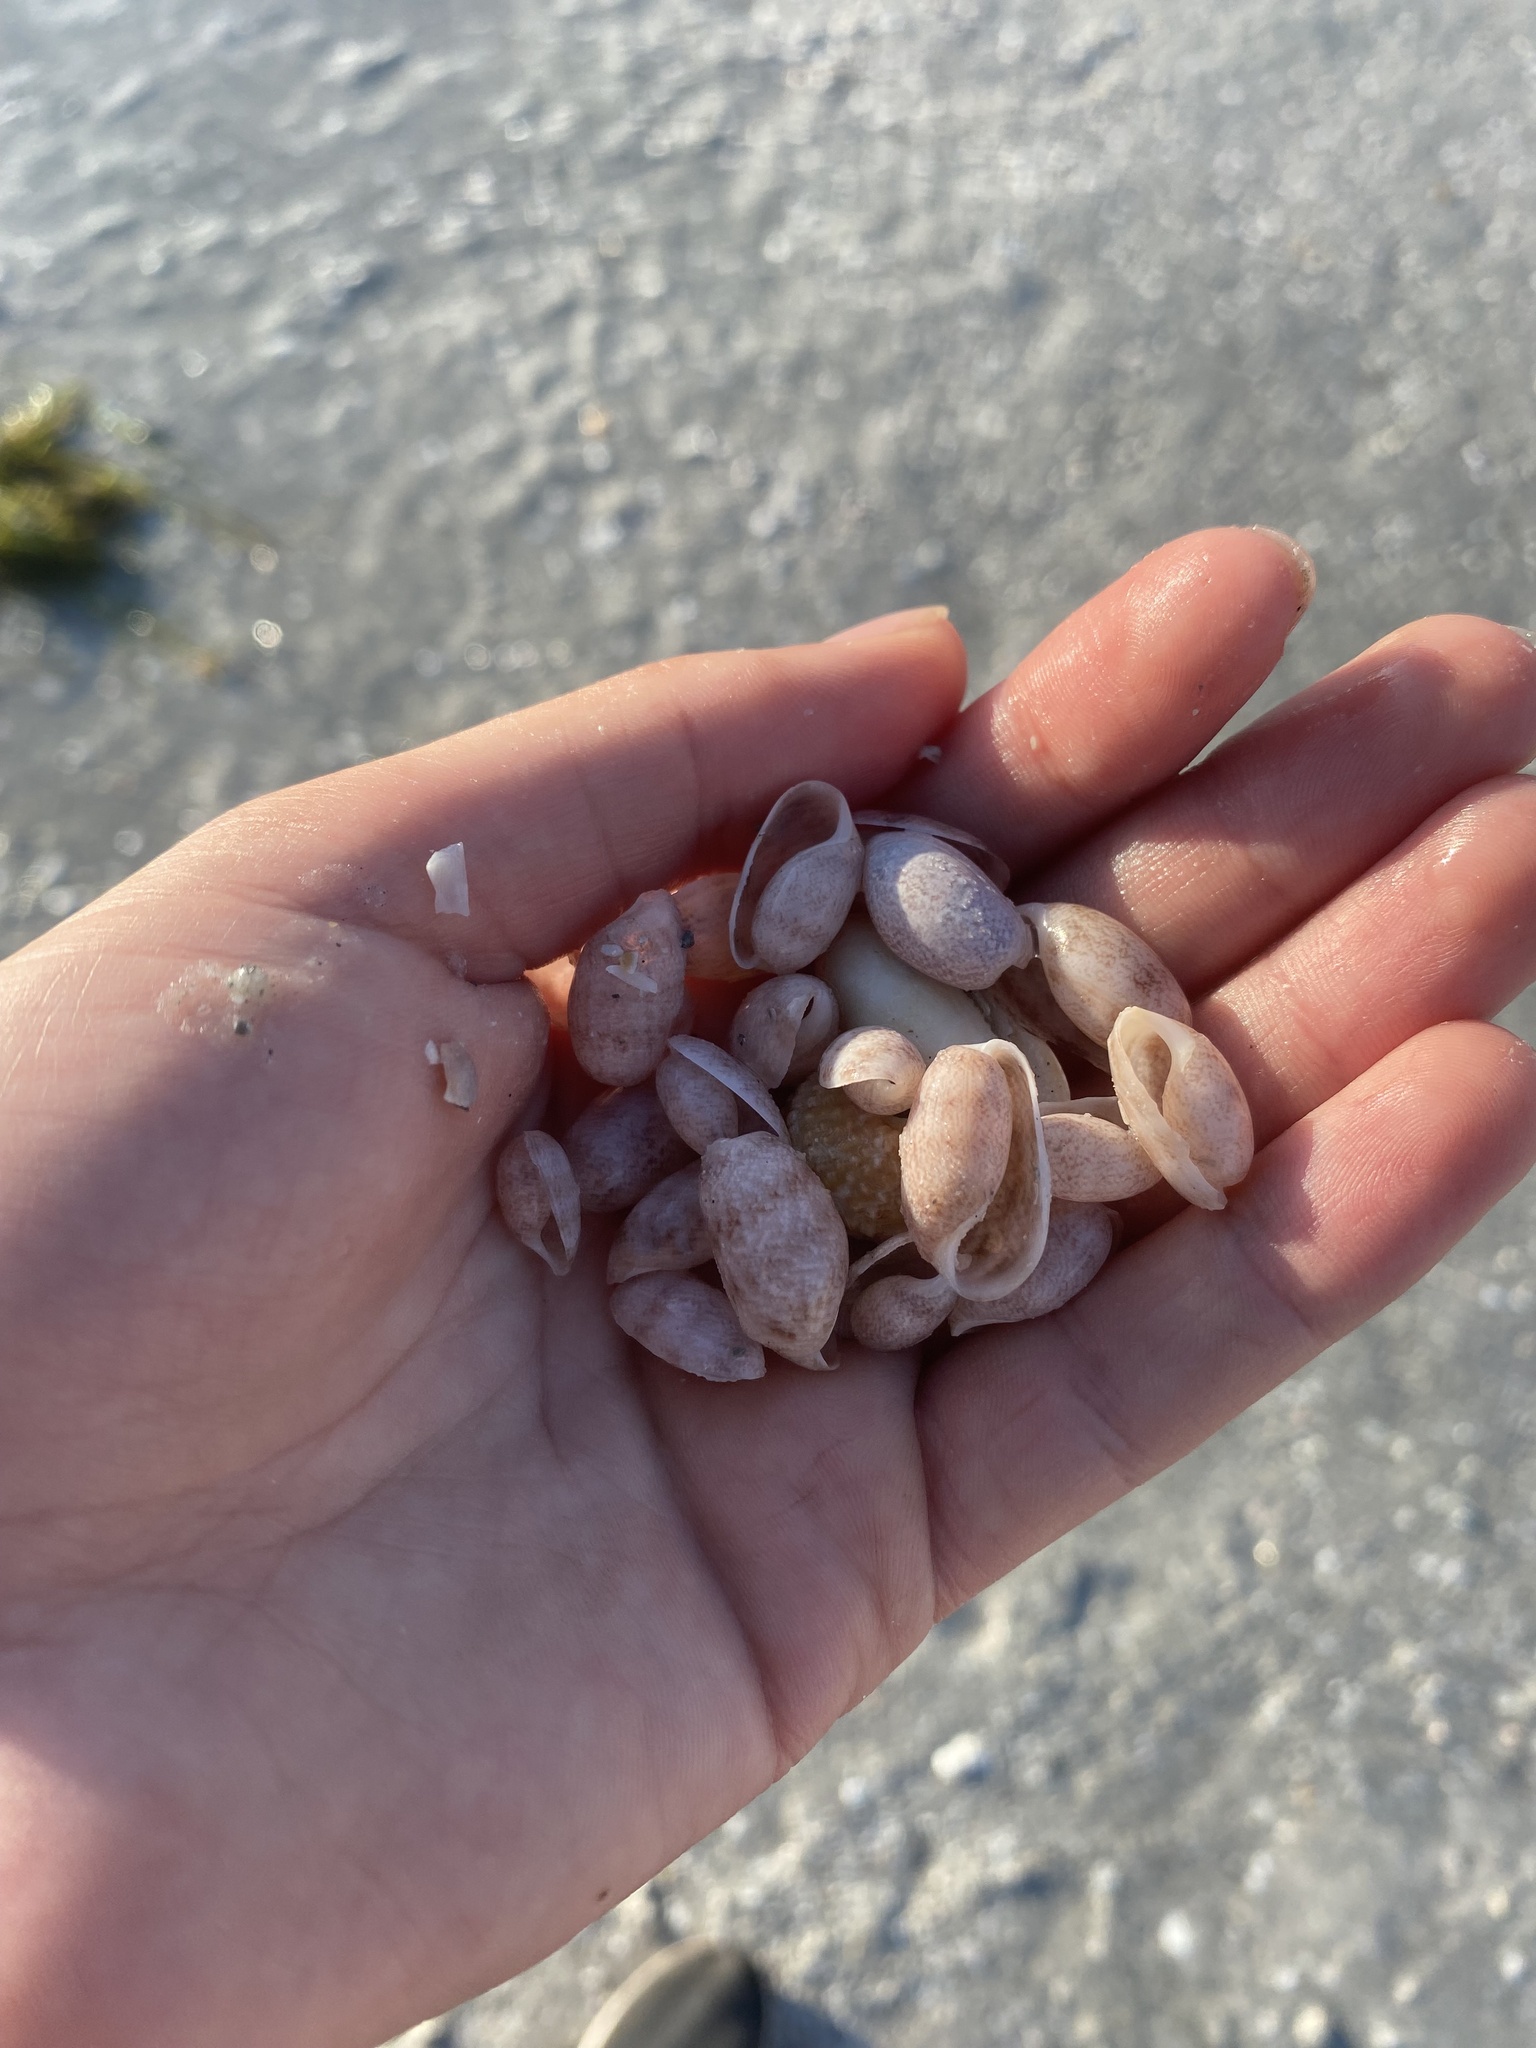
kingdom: Animalia
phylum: Mollusca
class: Gastropoda
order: Cephalaspidea
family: Bullidae
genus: Bulla
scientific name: Bulla occidentalis
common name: Common west-indian bubble
